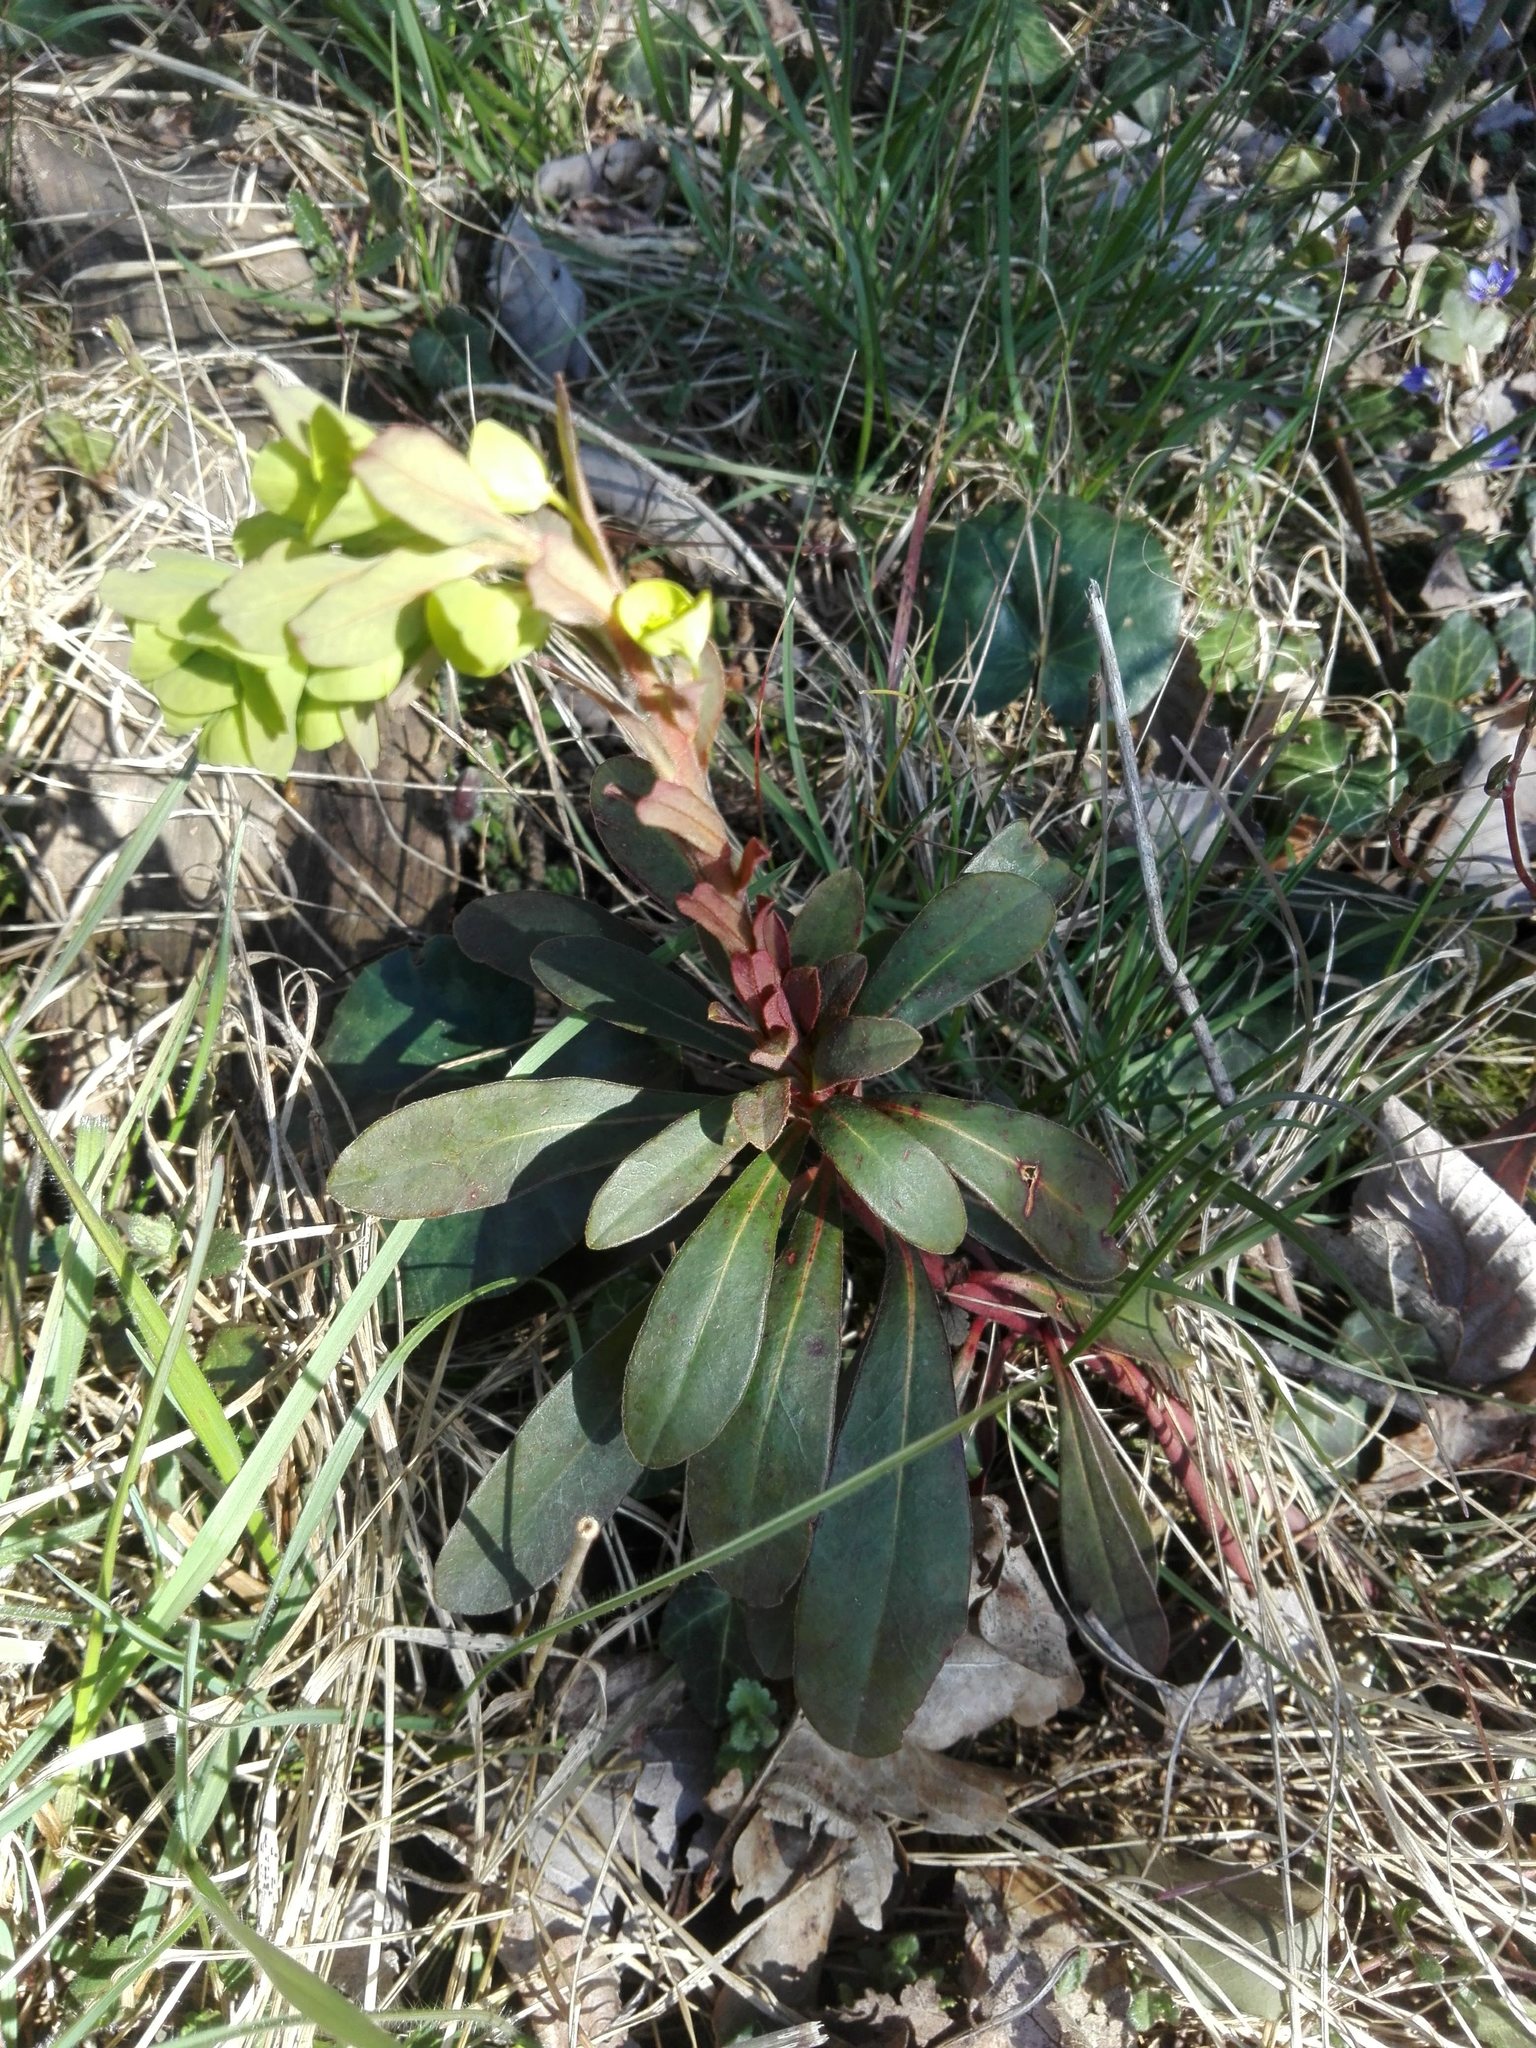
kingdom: Plantae
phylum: Tracheophyta
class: Magnoliopsida
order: Malpighiales
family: Euphorbiaceae
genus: Euphorbia
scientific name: Euphorbia amygdaloides
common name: Wood spurge
